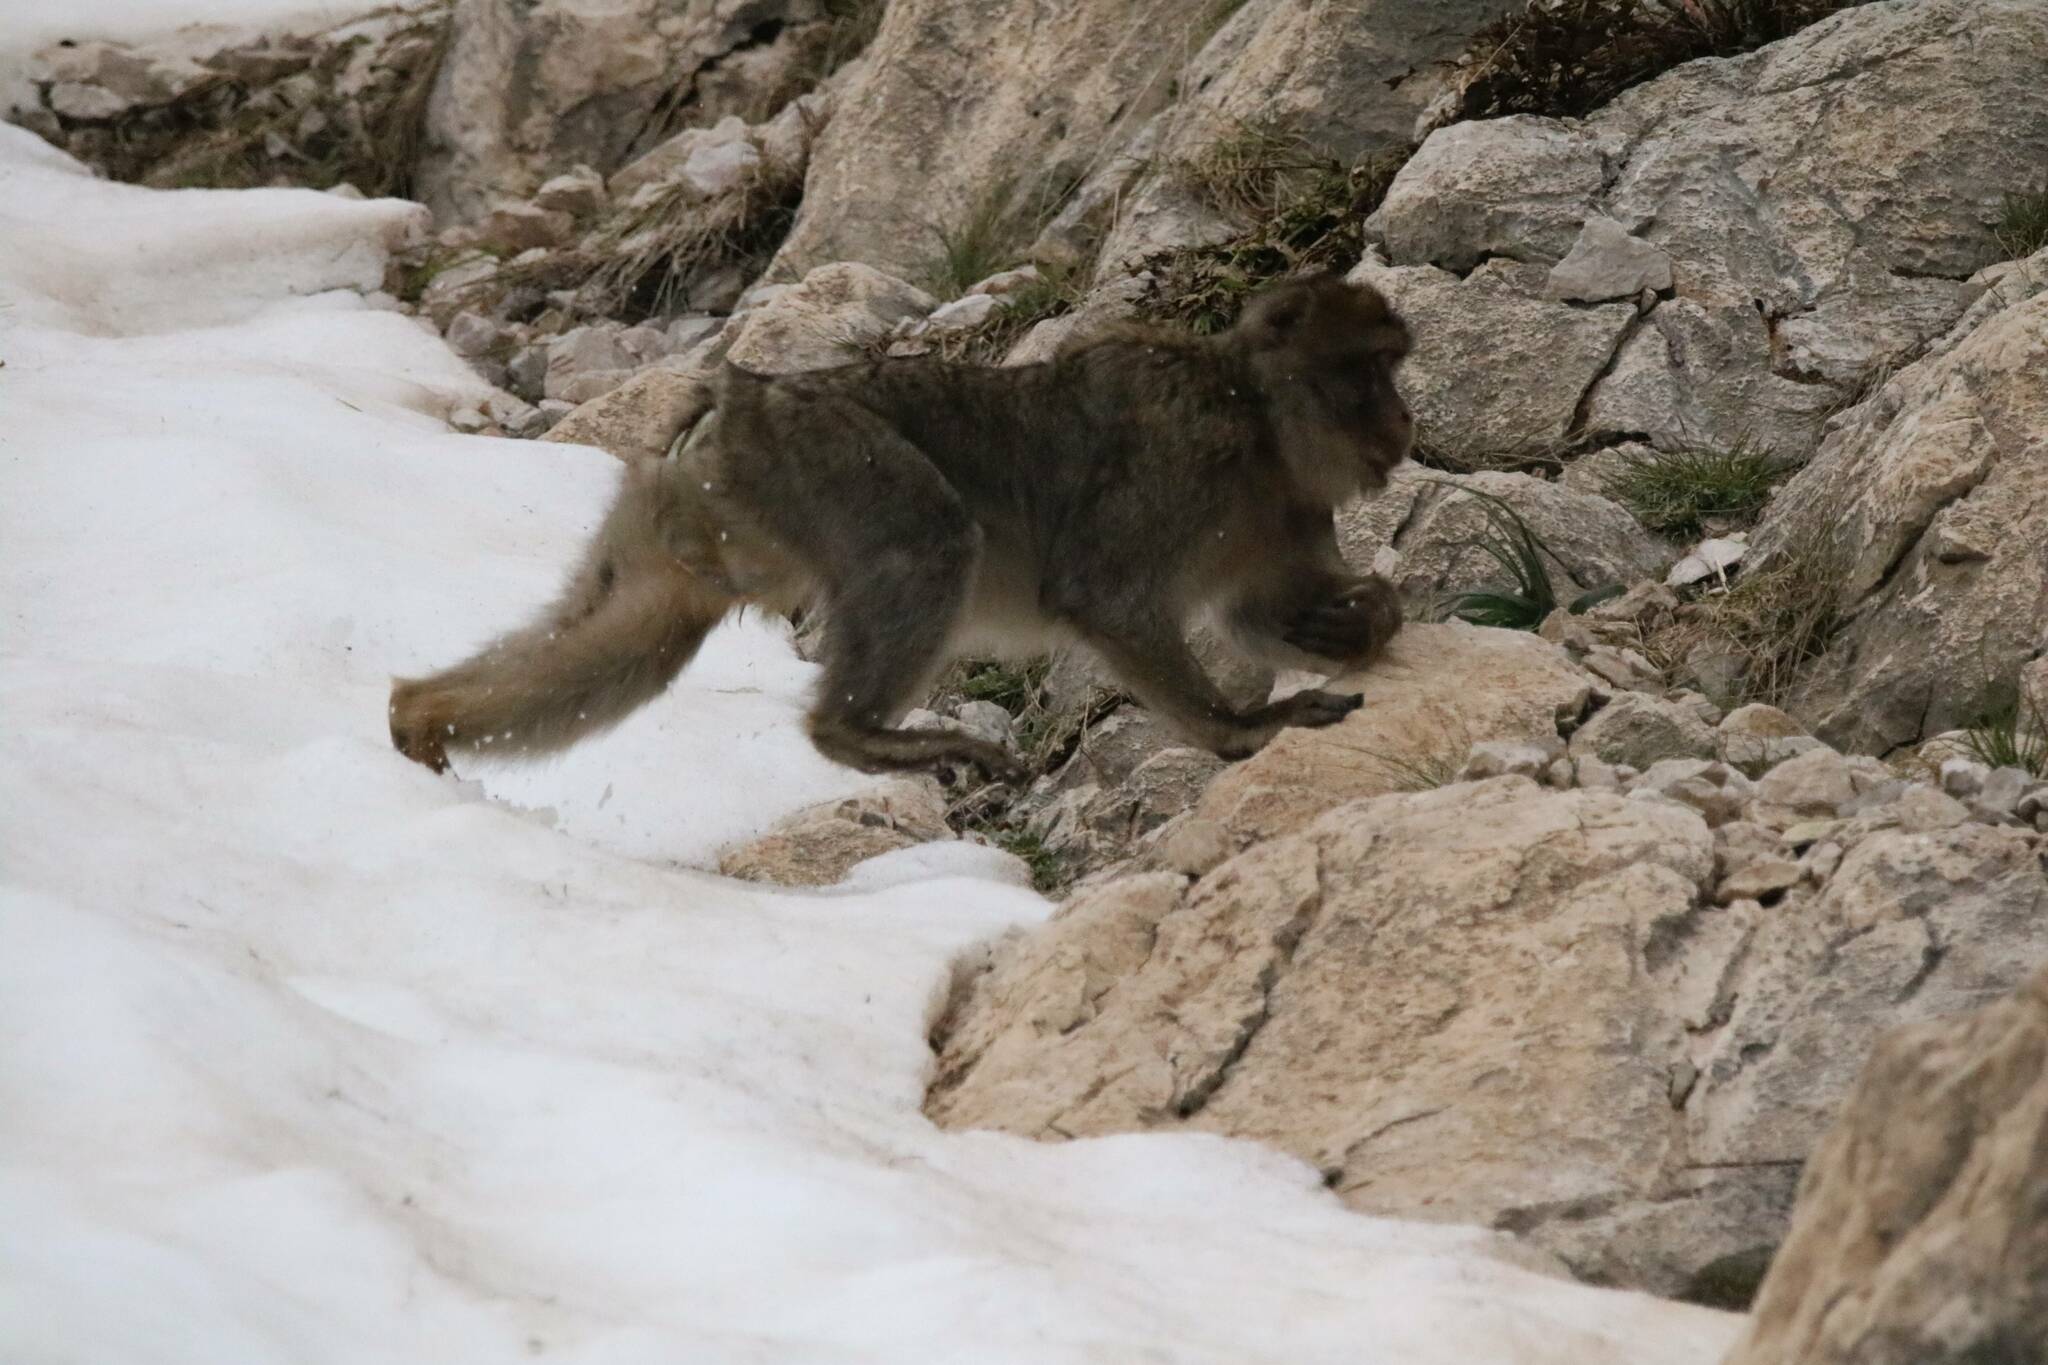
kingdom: Animalia
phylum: Chordata
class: Mammalia
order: Primates
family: Cercopithecidae
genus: Macaca
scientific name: Macaca sylvanus
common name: Barbary macaque
